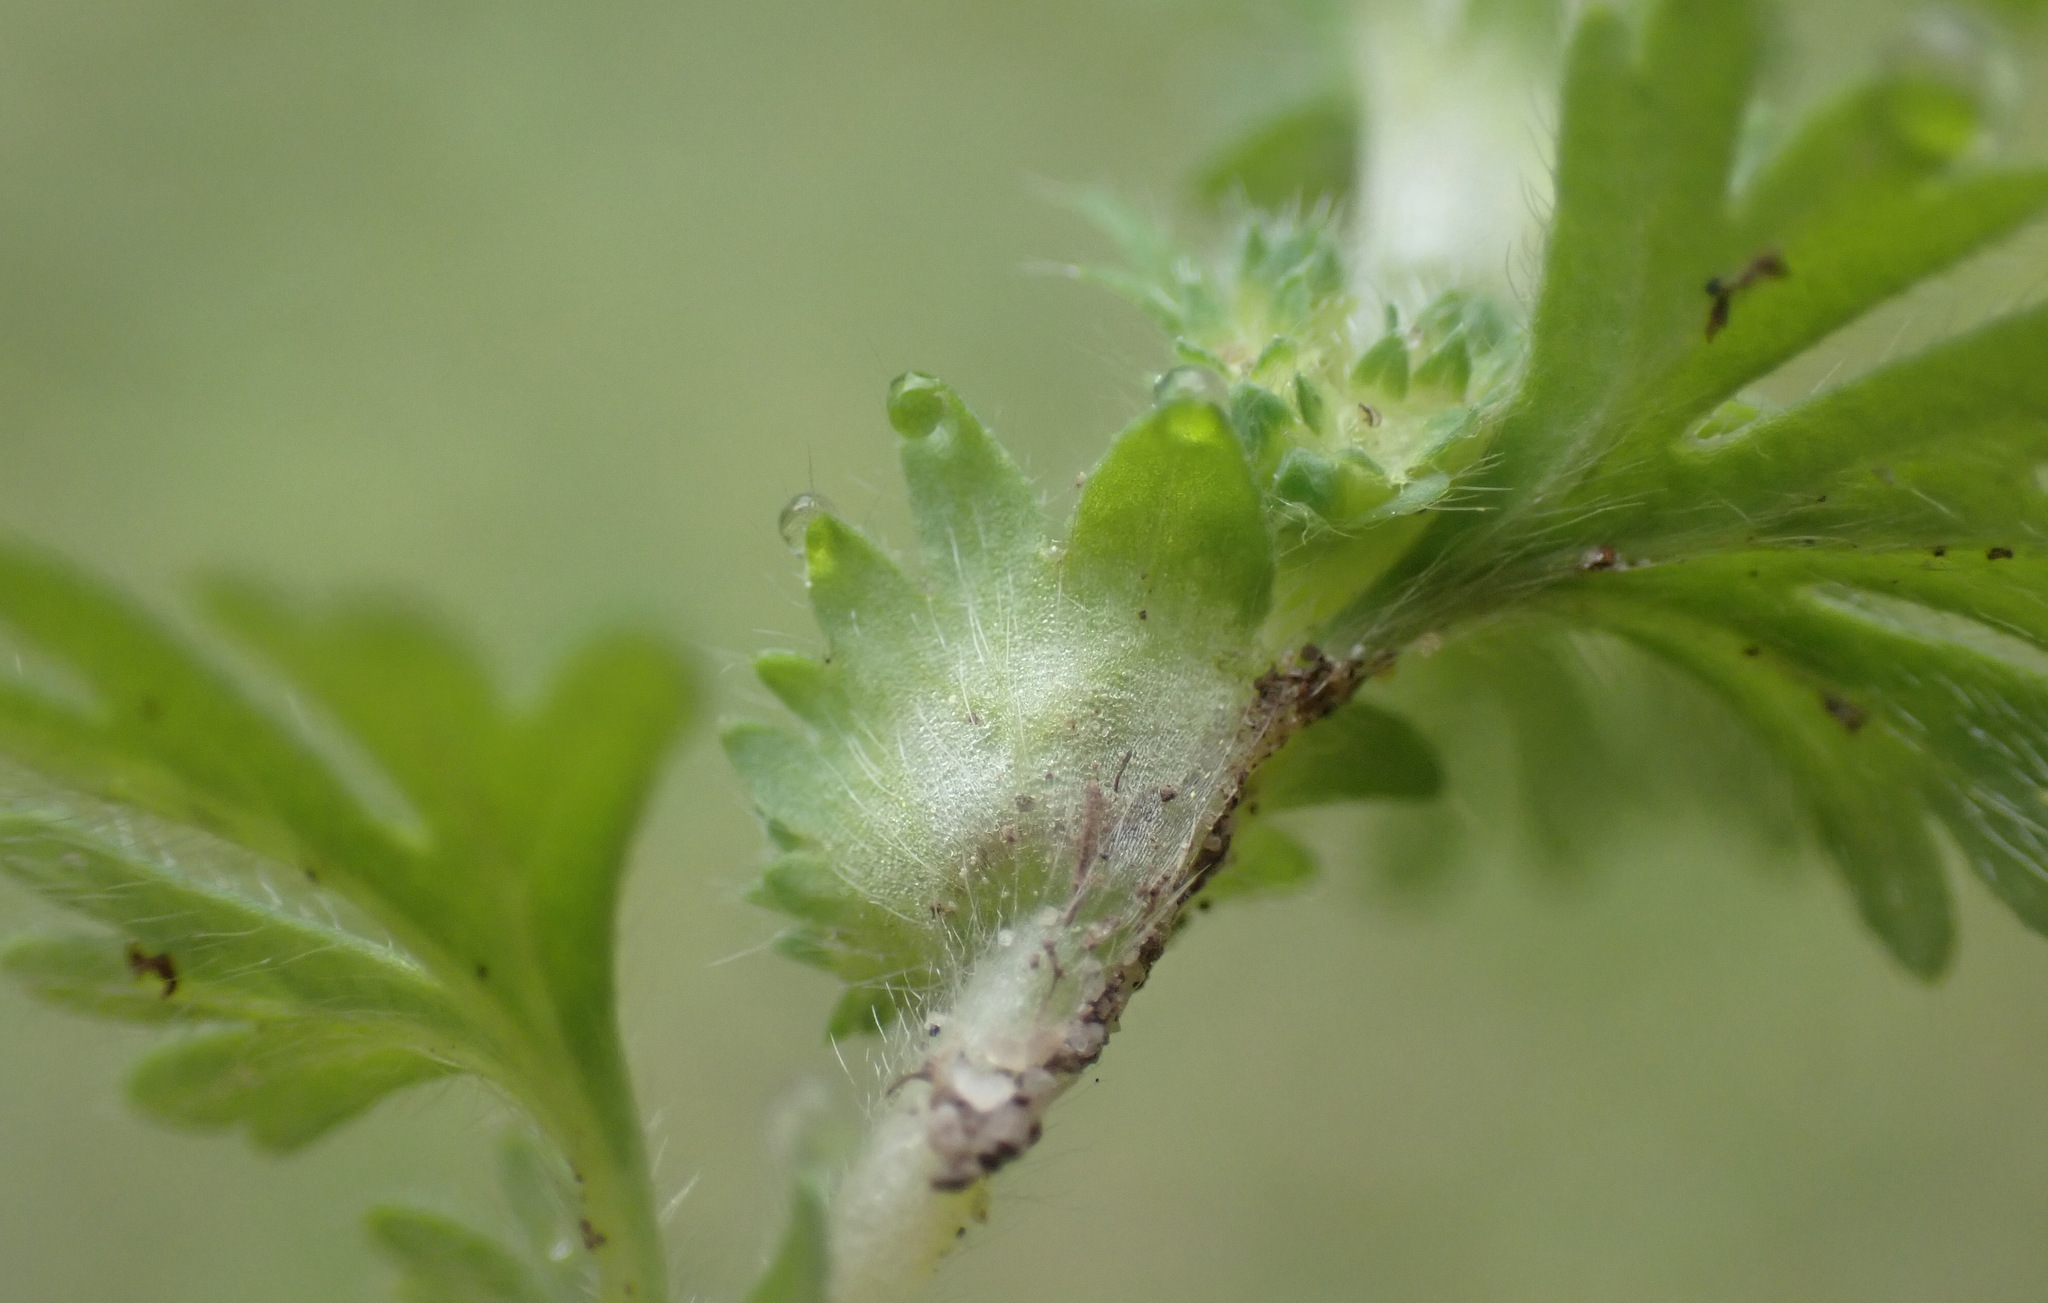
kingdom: Plantae
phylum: Tracheophyta
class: Magnoliopsida
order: Rosales
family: Rosaceae
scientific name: Rosaceae
